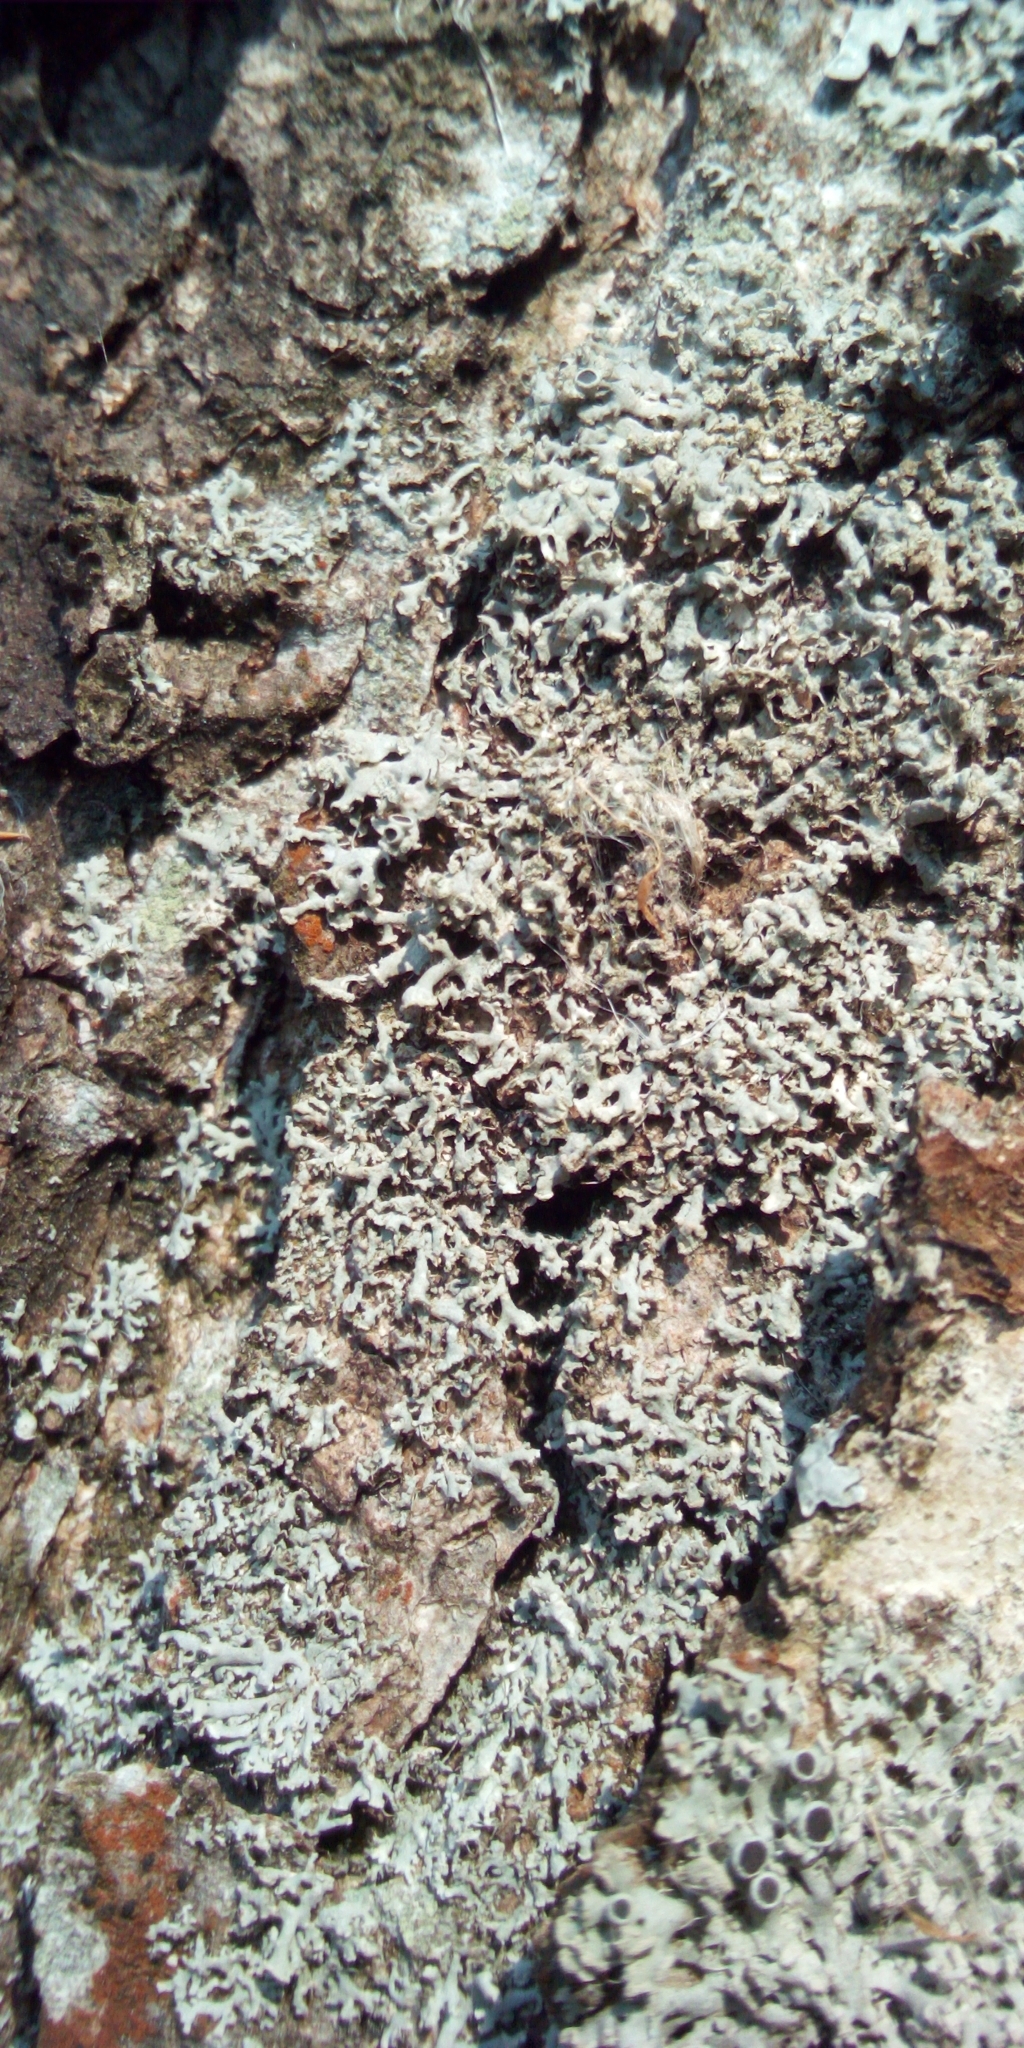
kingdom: Fungi
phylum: Ascomycota
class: Lecanoromycetes
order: Caliciales
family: Physciaceae
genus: Physcia
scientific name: Physcia tenella
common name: Fringed rosette lichen
